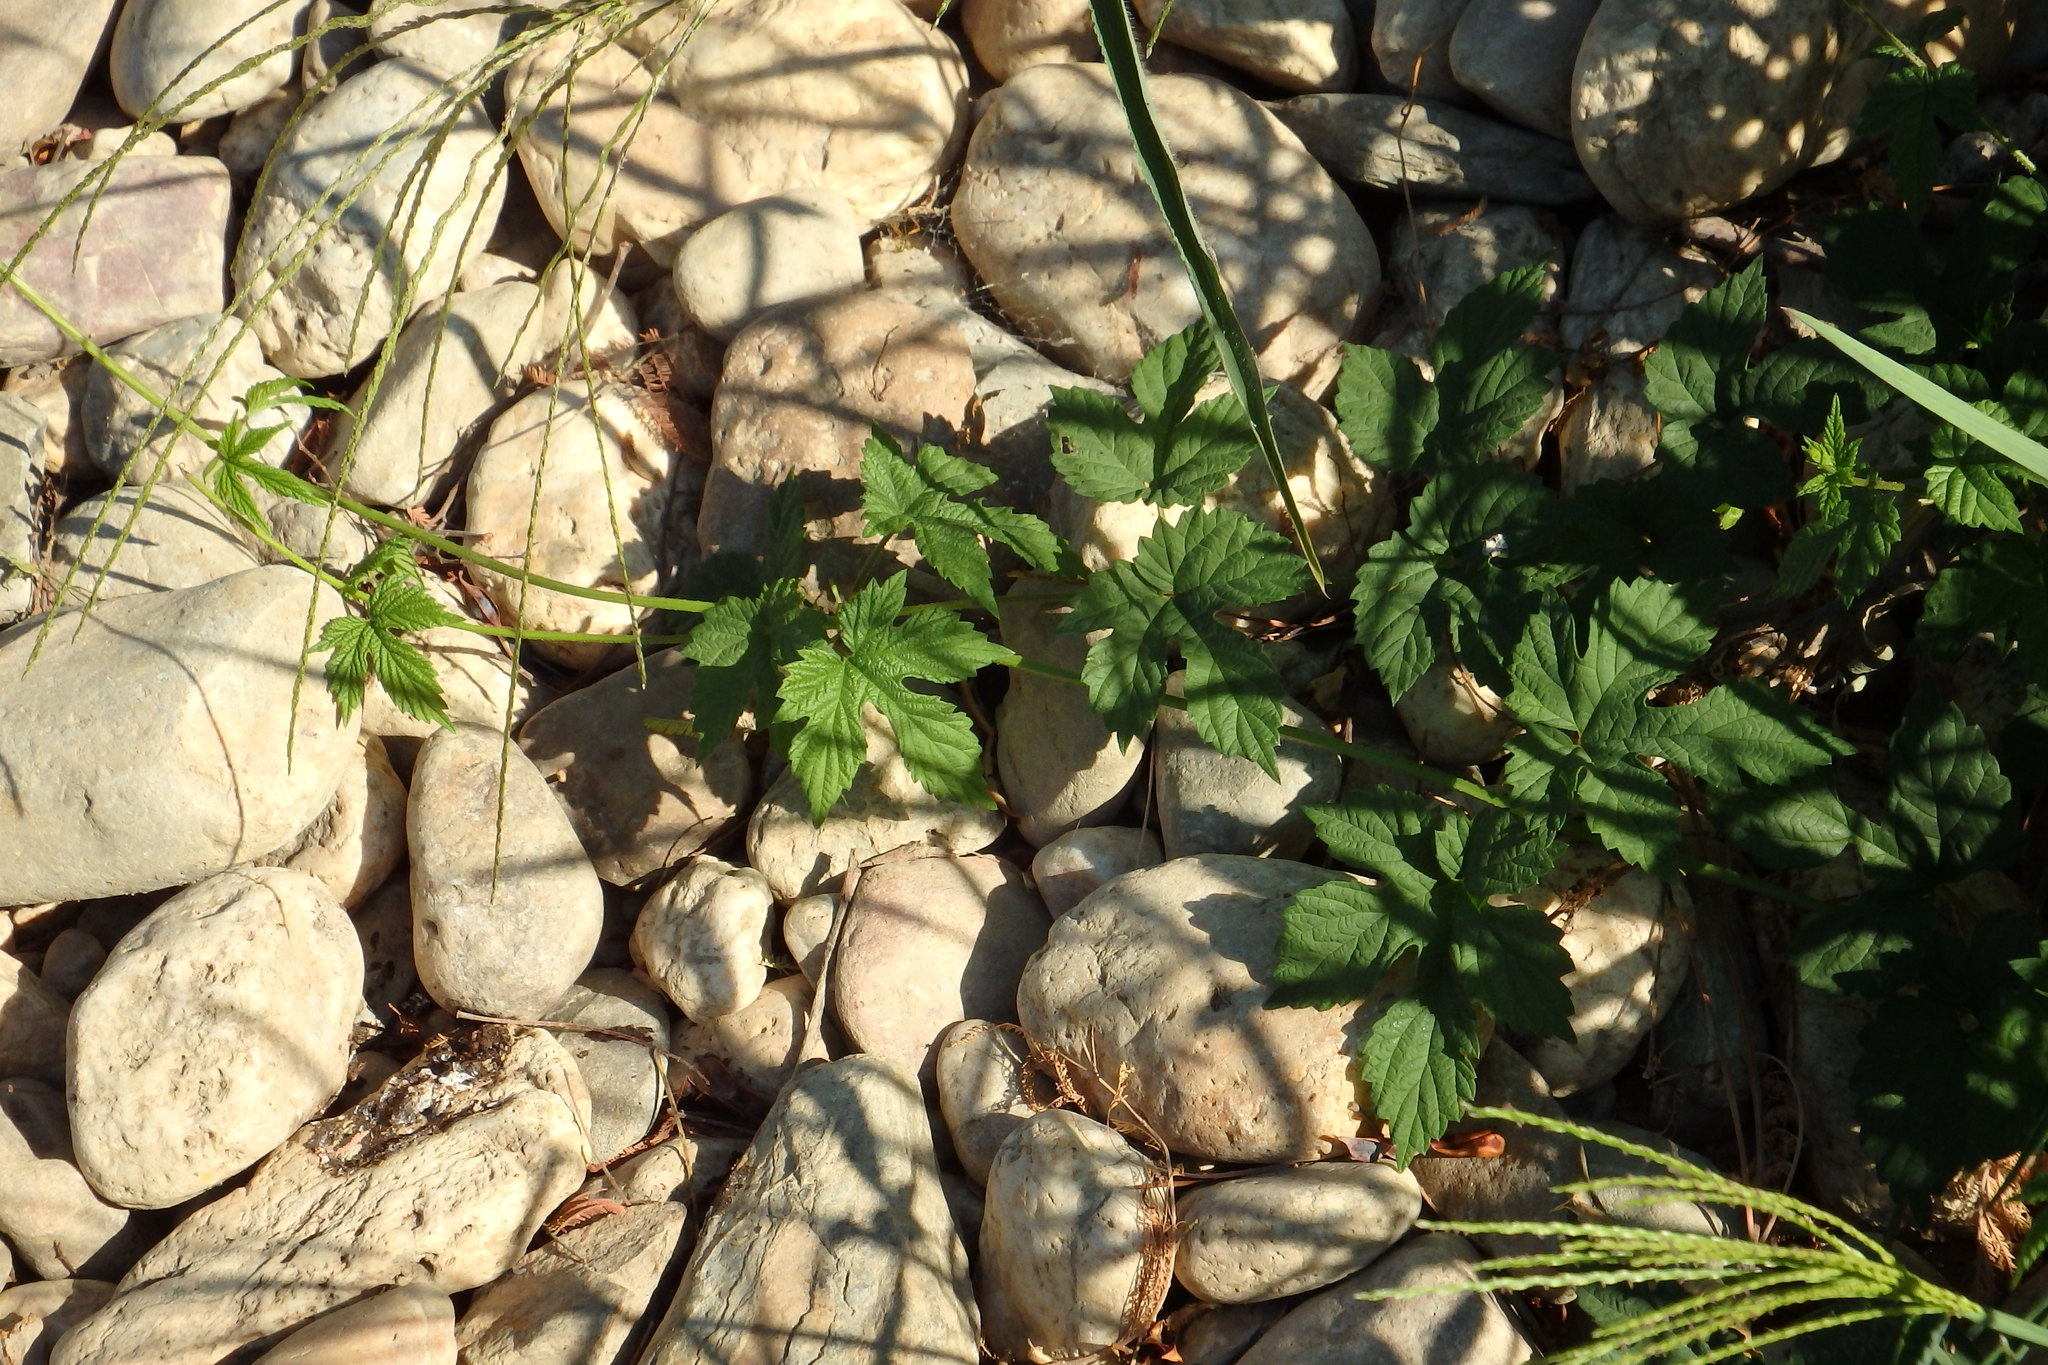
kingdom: Plantae
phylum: Tracheophyta
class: Magnoliopsida
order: Rosales
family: Cannabaceae
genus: Humulus
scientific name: Humulus lupulus
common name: Hop
